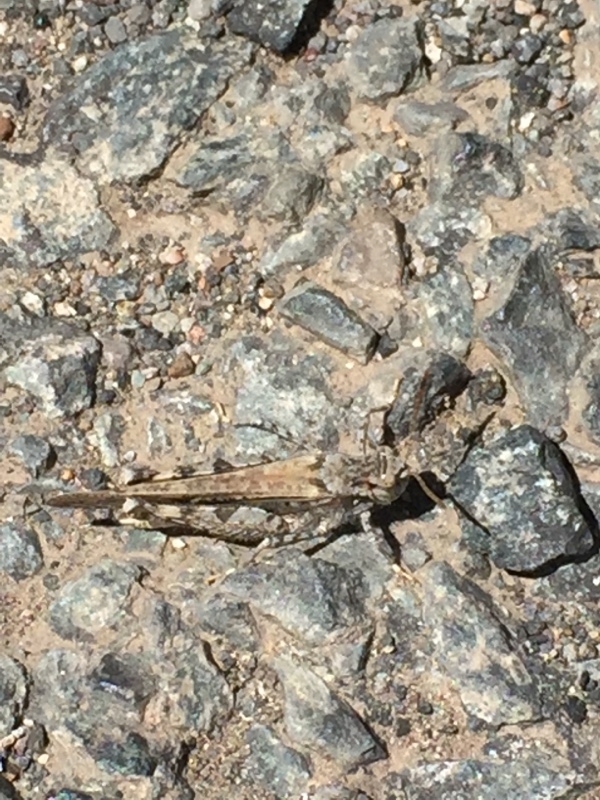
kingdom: Animalia
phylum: Arthropoda
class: Insecta
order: Orthoptera
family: Acrididae
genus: Acrotylus
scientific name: Acrotylus insubricus
